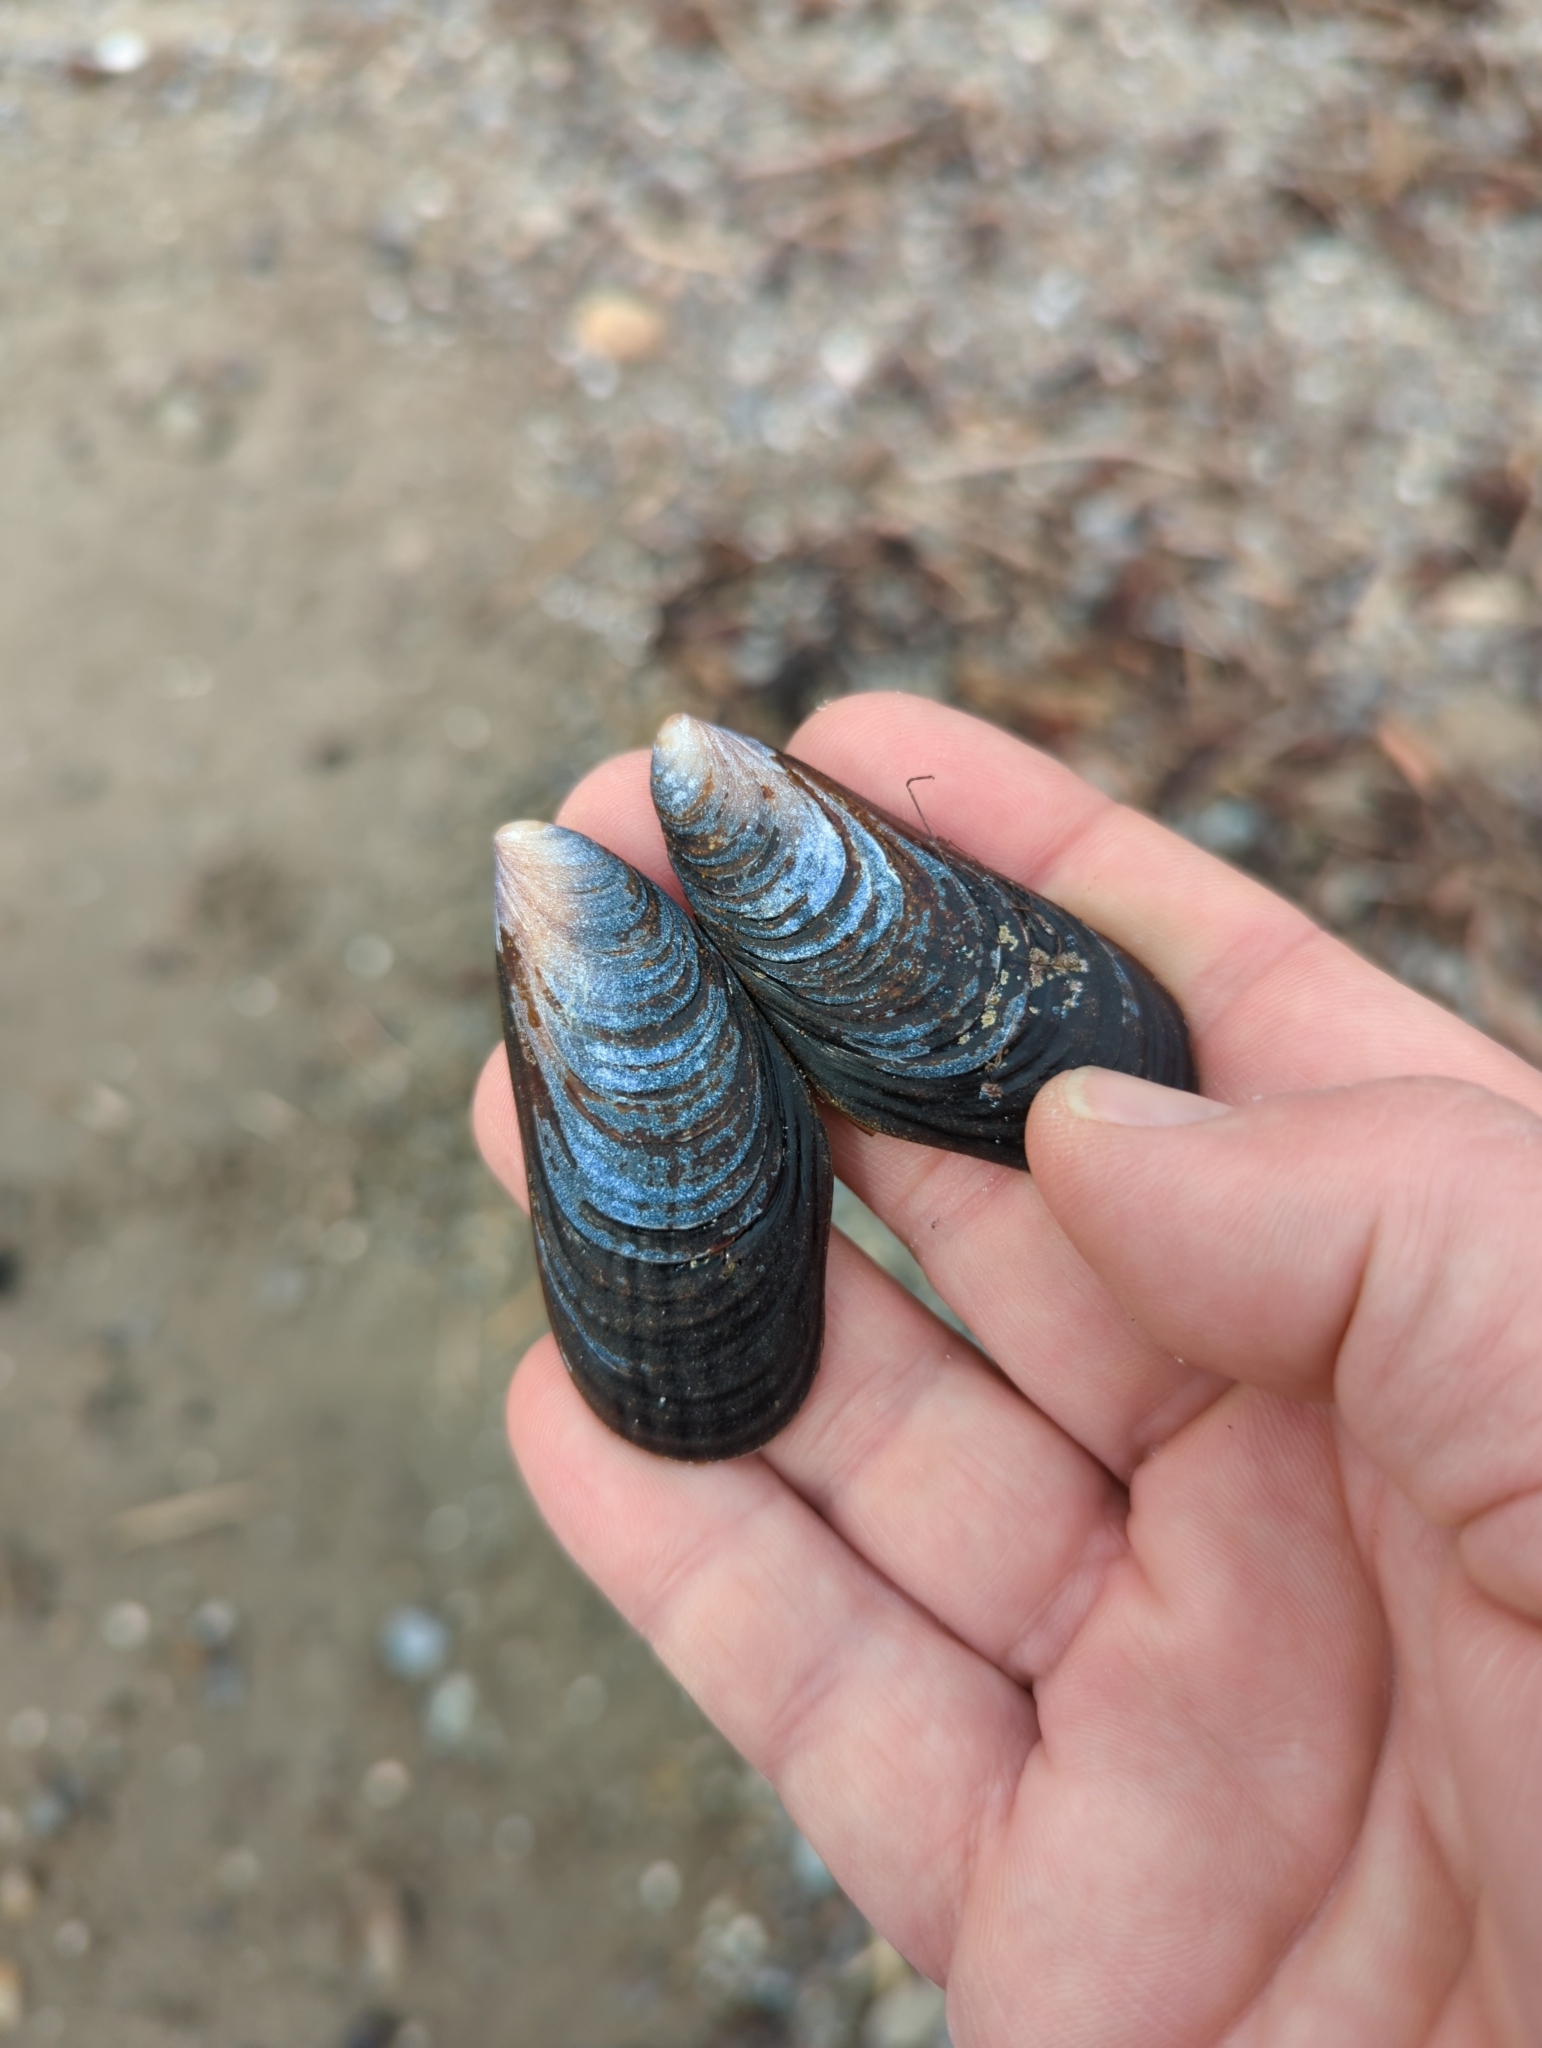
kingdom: Animalia
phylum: Mollusca
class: Bivalvia
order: Mytilida
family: Mytilidae
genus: Mytilus
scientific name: Mytilus californianus
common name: California mussel
